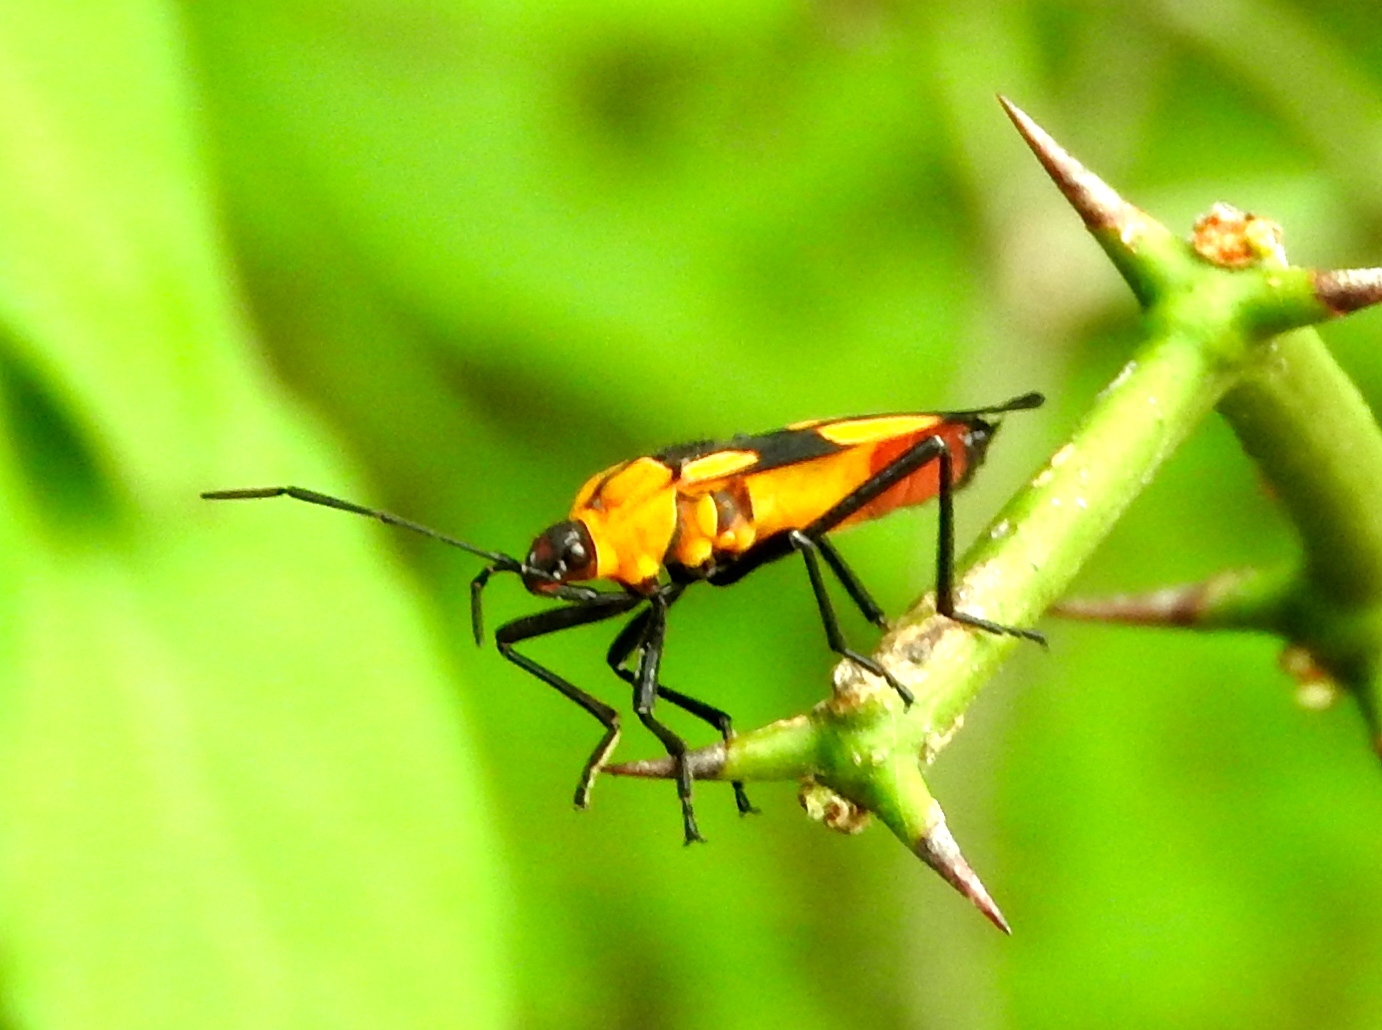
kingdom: Animalia
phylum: Arthropoda
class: Insecta
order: Hemiptera
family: Lygaeidae
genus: Oncopeltus
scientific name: Oncopeltus
